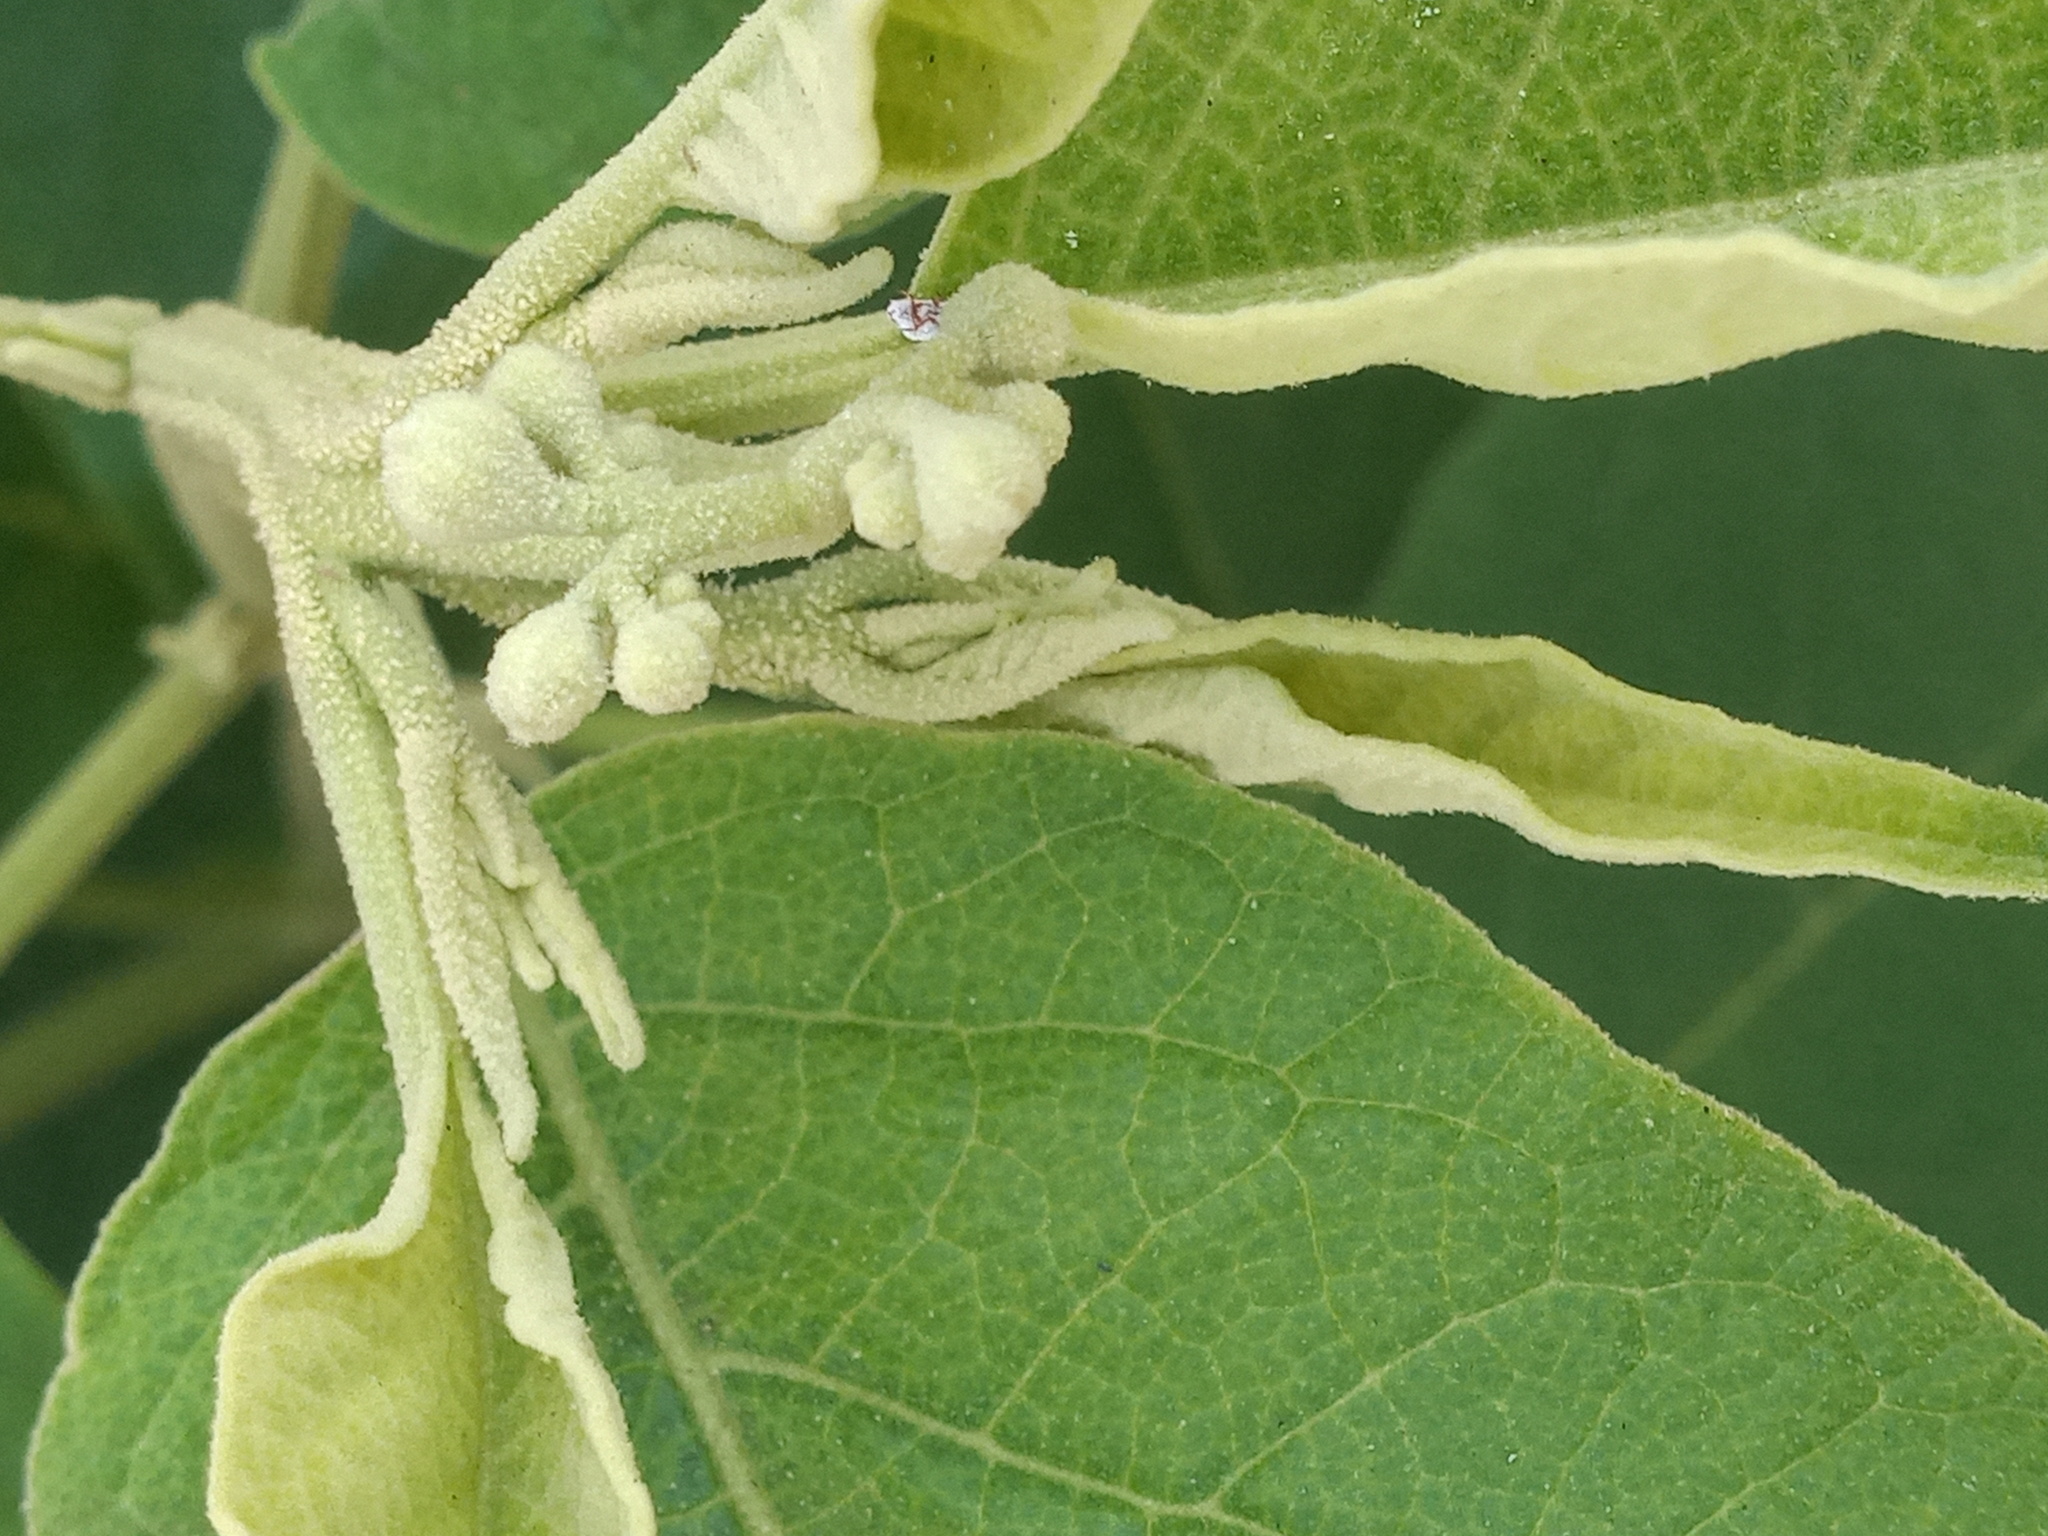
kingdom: Plantae
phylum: Tracheophyta
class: Magnoliopsida
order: Solanales
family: Solanaceae
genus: Solanum
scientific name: Solanum erianthum
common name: Tobacco-tree
